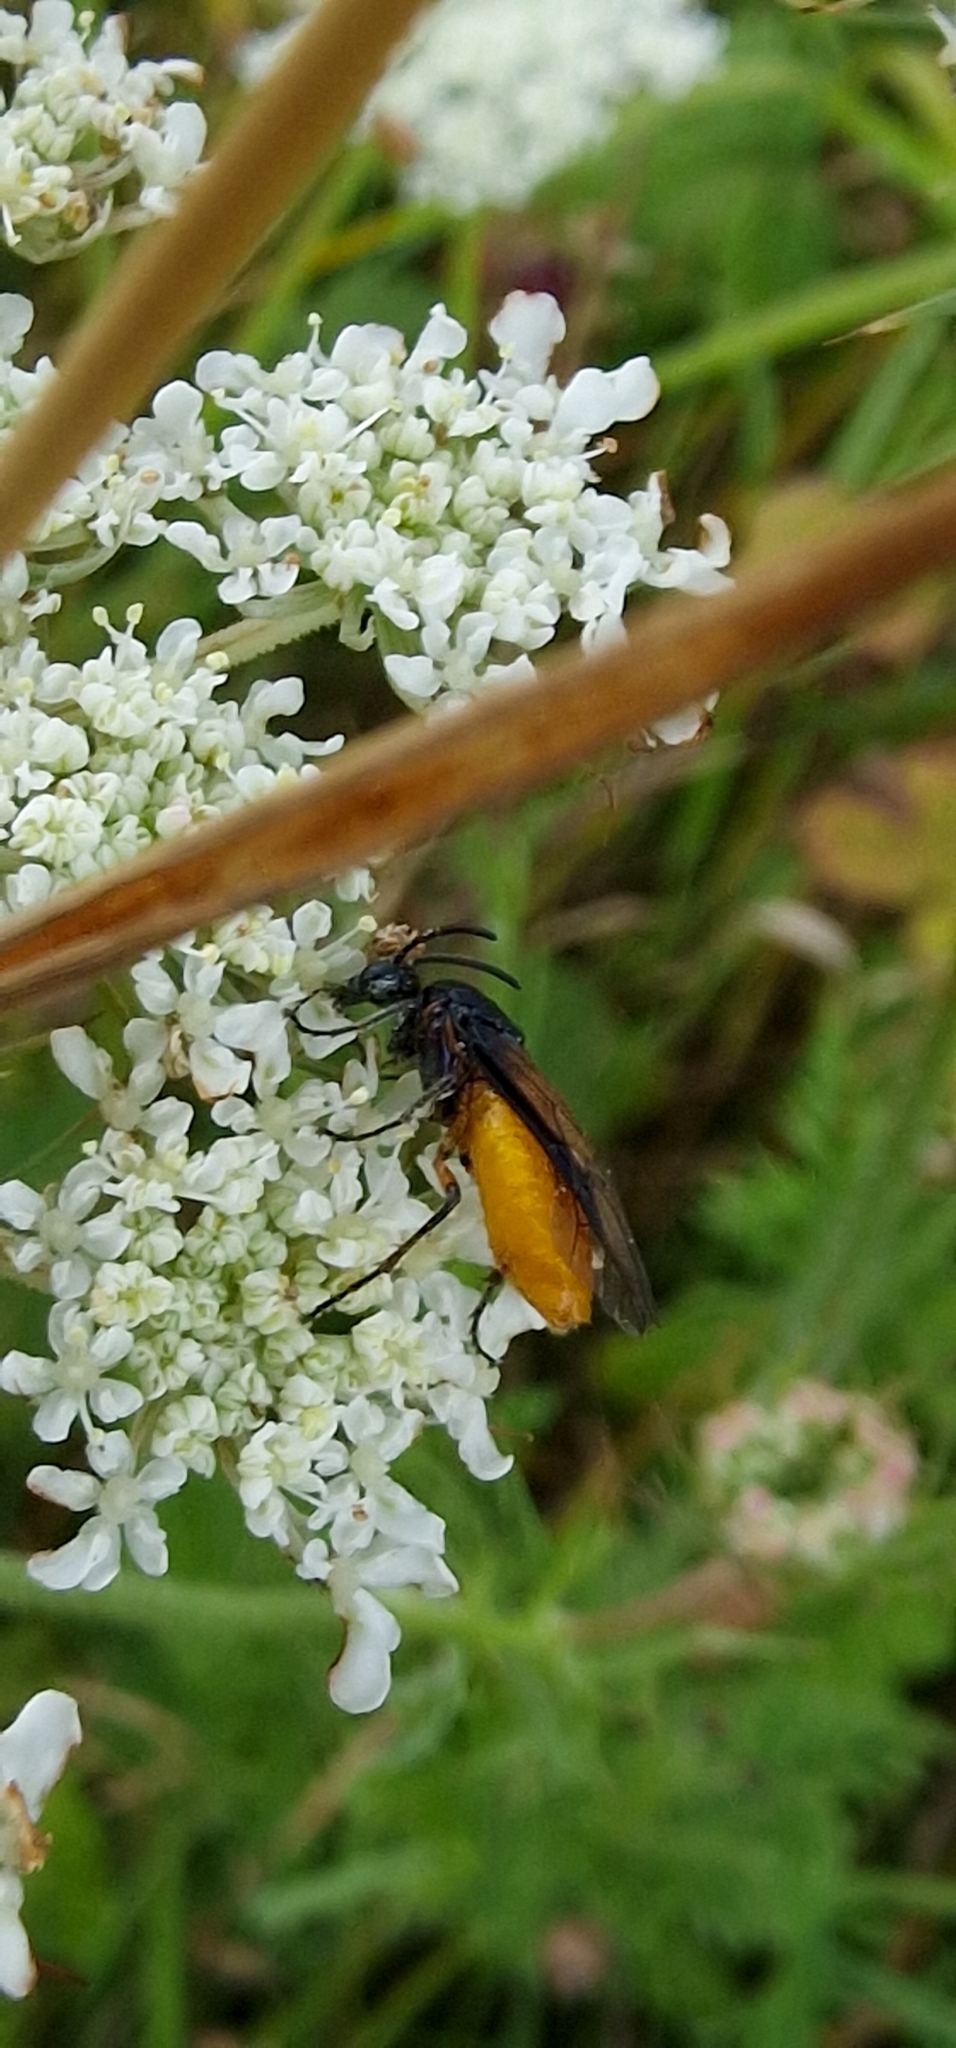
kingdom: Animalia
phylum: Arthropoda
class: Insecta
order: Hymenoptera
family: Argidae
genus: Arge
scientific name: Arge pagana
